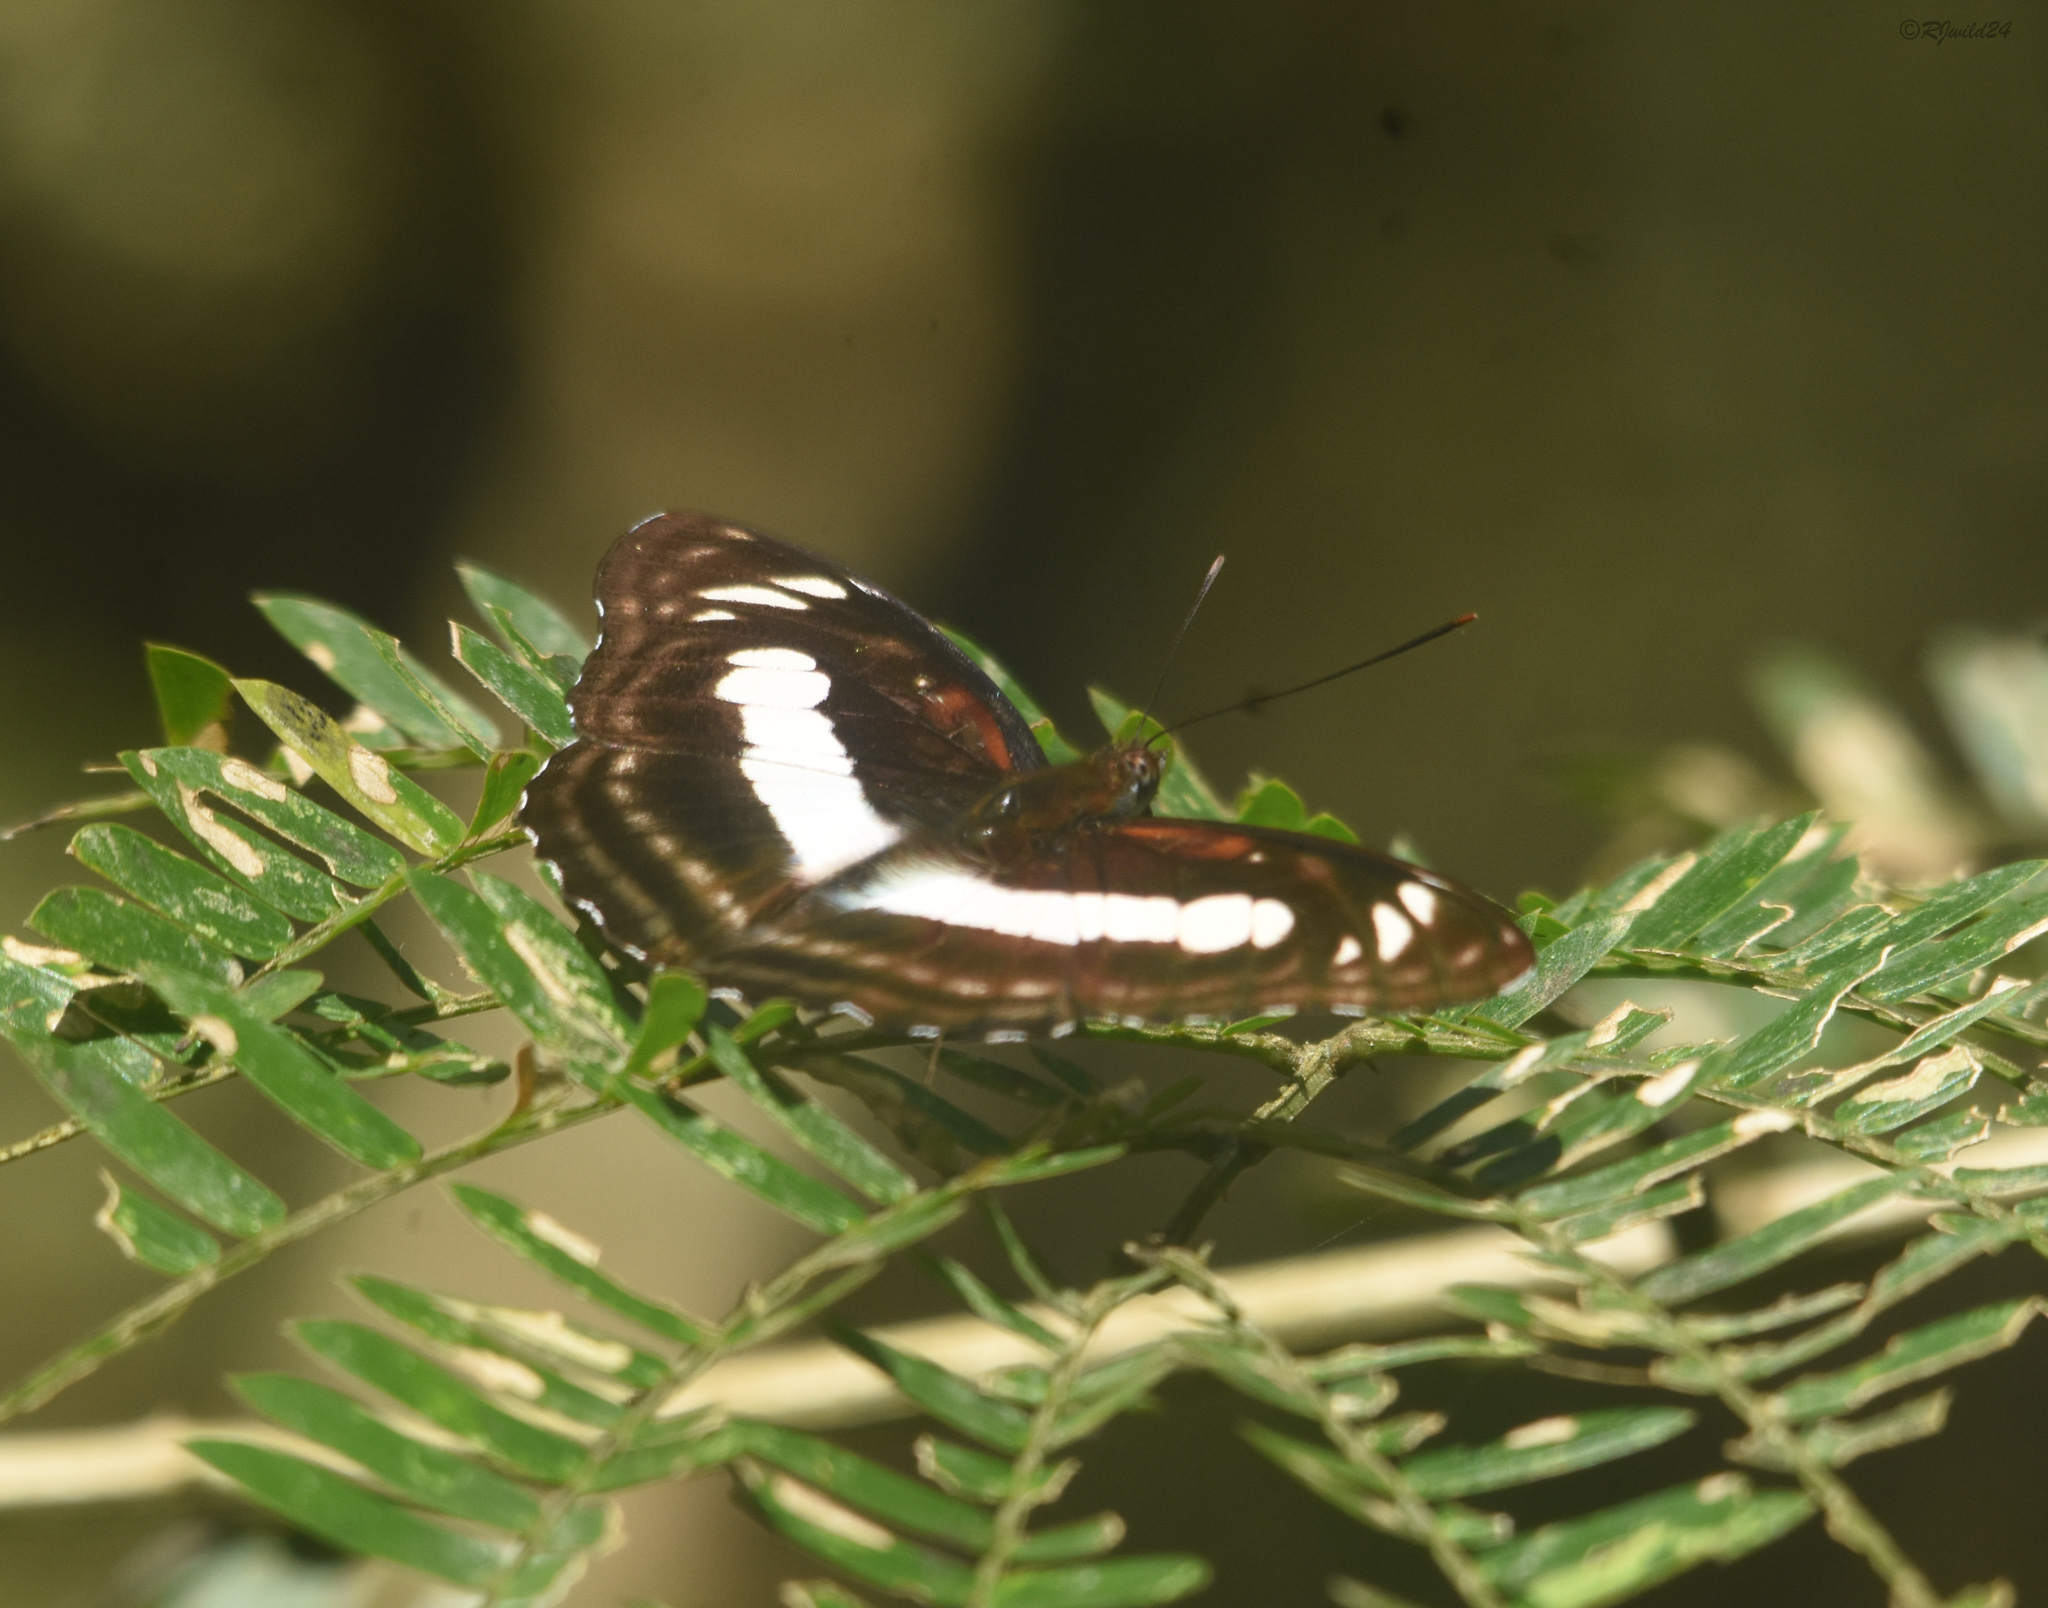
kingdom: Animalia
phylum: Arthropoda
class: Insecta
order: Lepidoptera
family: Nymphalidae
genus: Parathyma
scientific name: Parathyma selenophora
